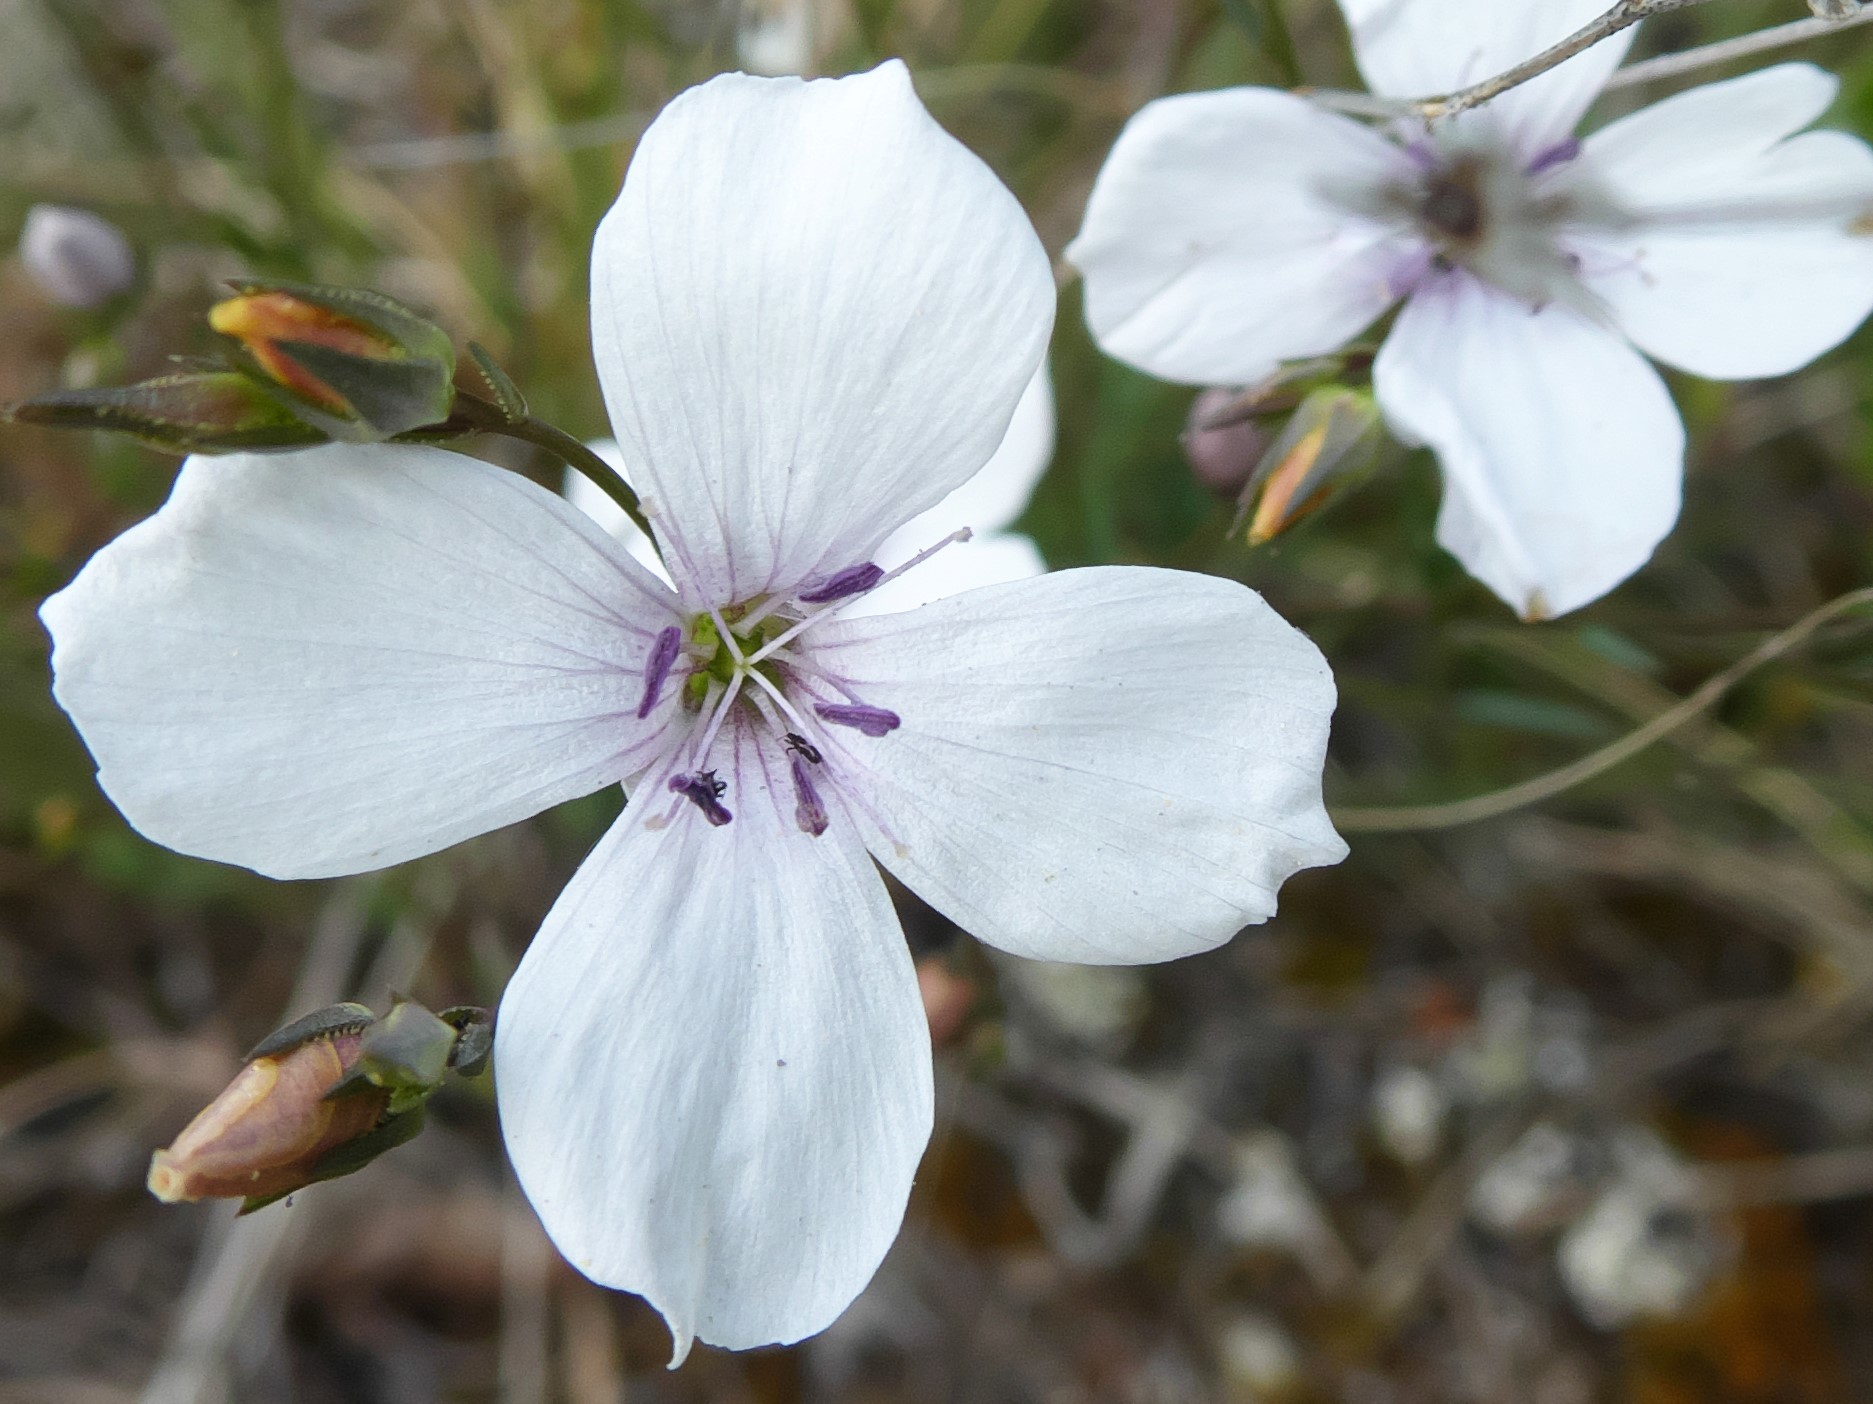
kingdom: Plantae
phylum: Tracheophyta
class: Magnoliopsida
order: Malpighiales
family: Linaceae
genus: Linum
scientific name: Linum tenuifolium
